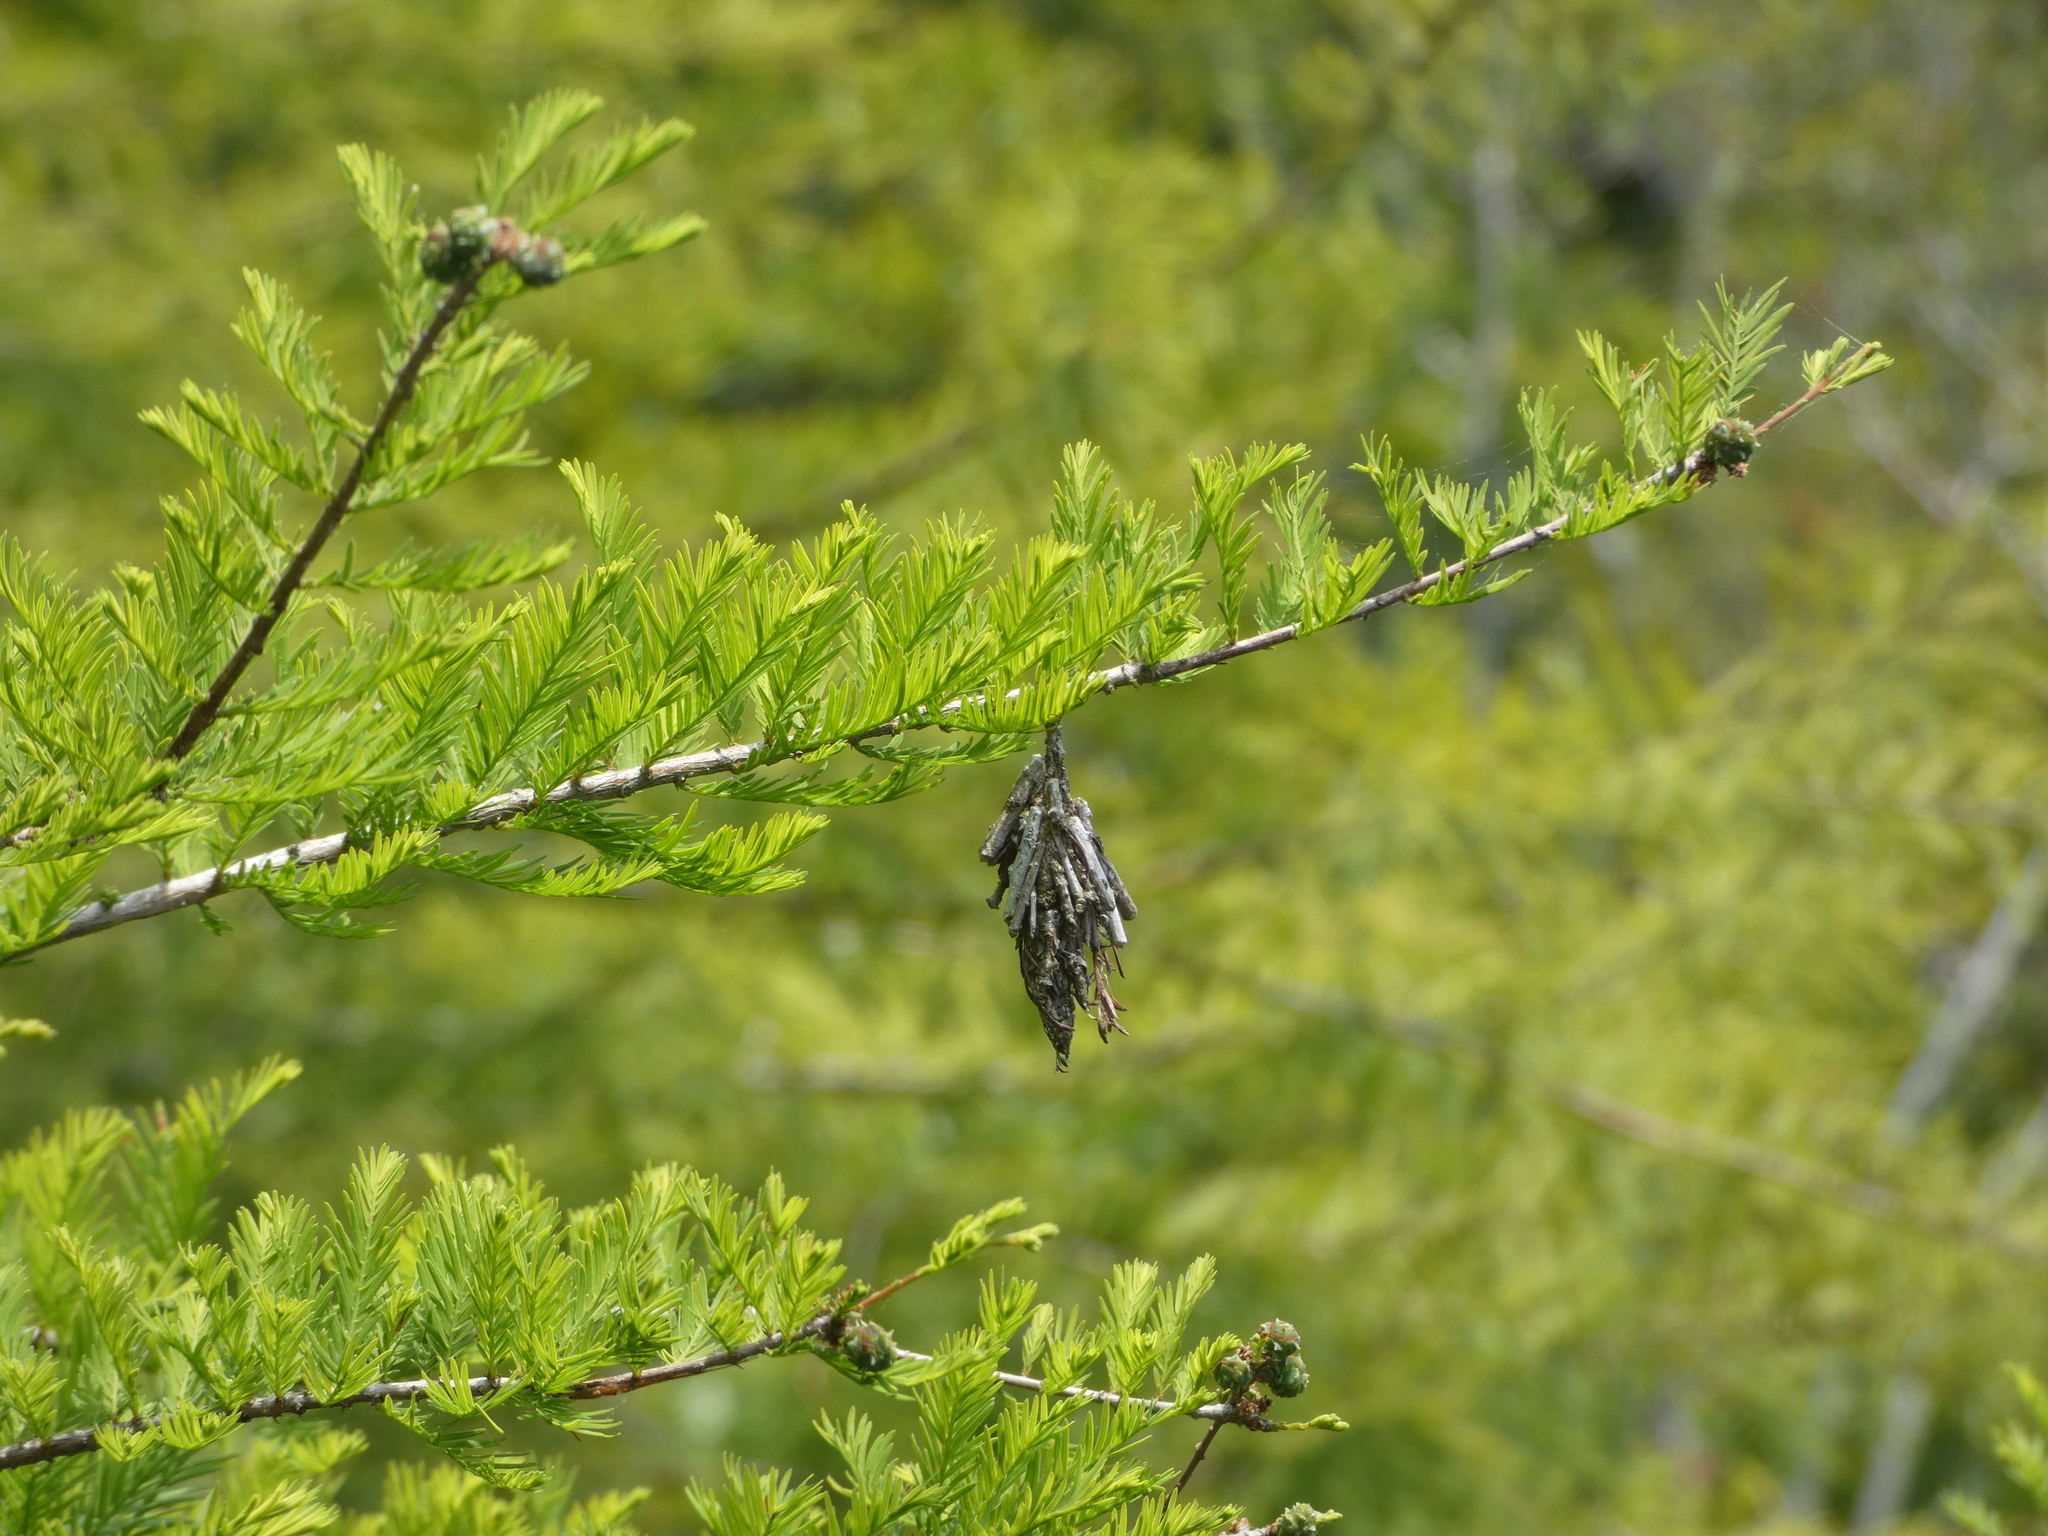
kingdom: Animalia
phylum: Arthropoda
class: Insecta
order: Lepidoptera
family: Psychidae
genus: Thyridopteryx
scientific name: Thyridopteryx ephemeraeformis
